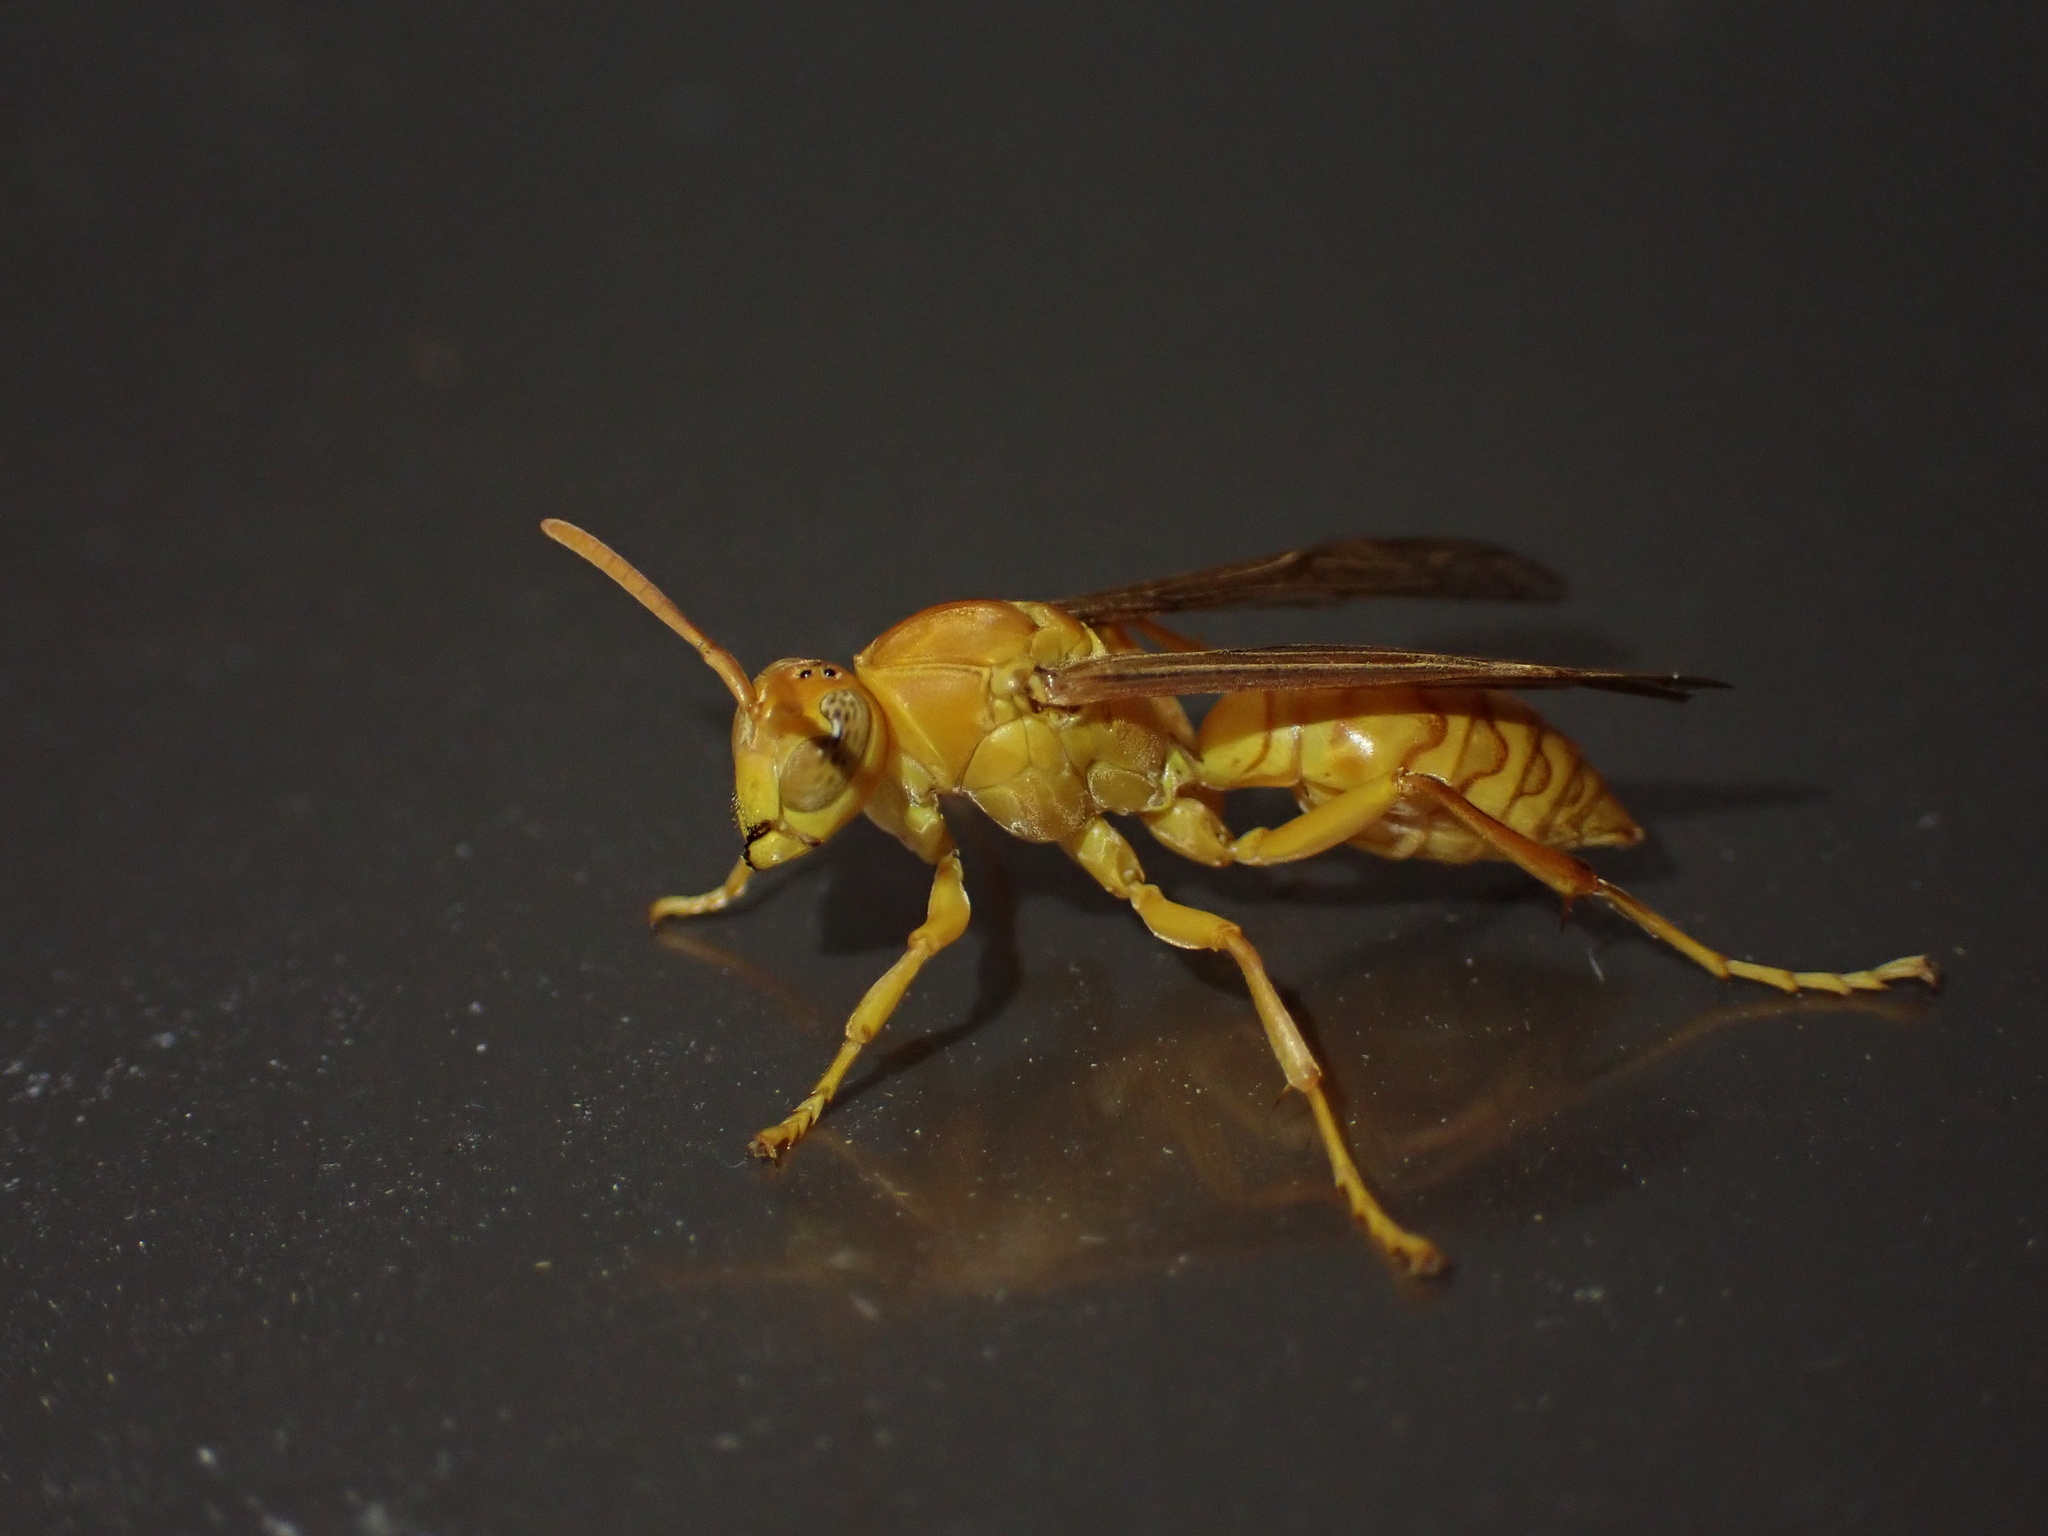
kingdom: Animalia
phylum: Arthropoda
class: Insecta
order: Hymenoptera
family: Eumenidae
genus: Polistes
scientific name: Polistes wattii
